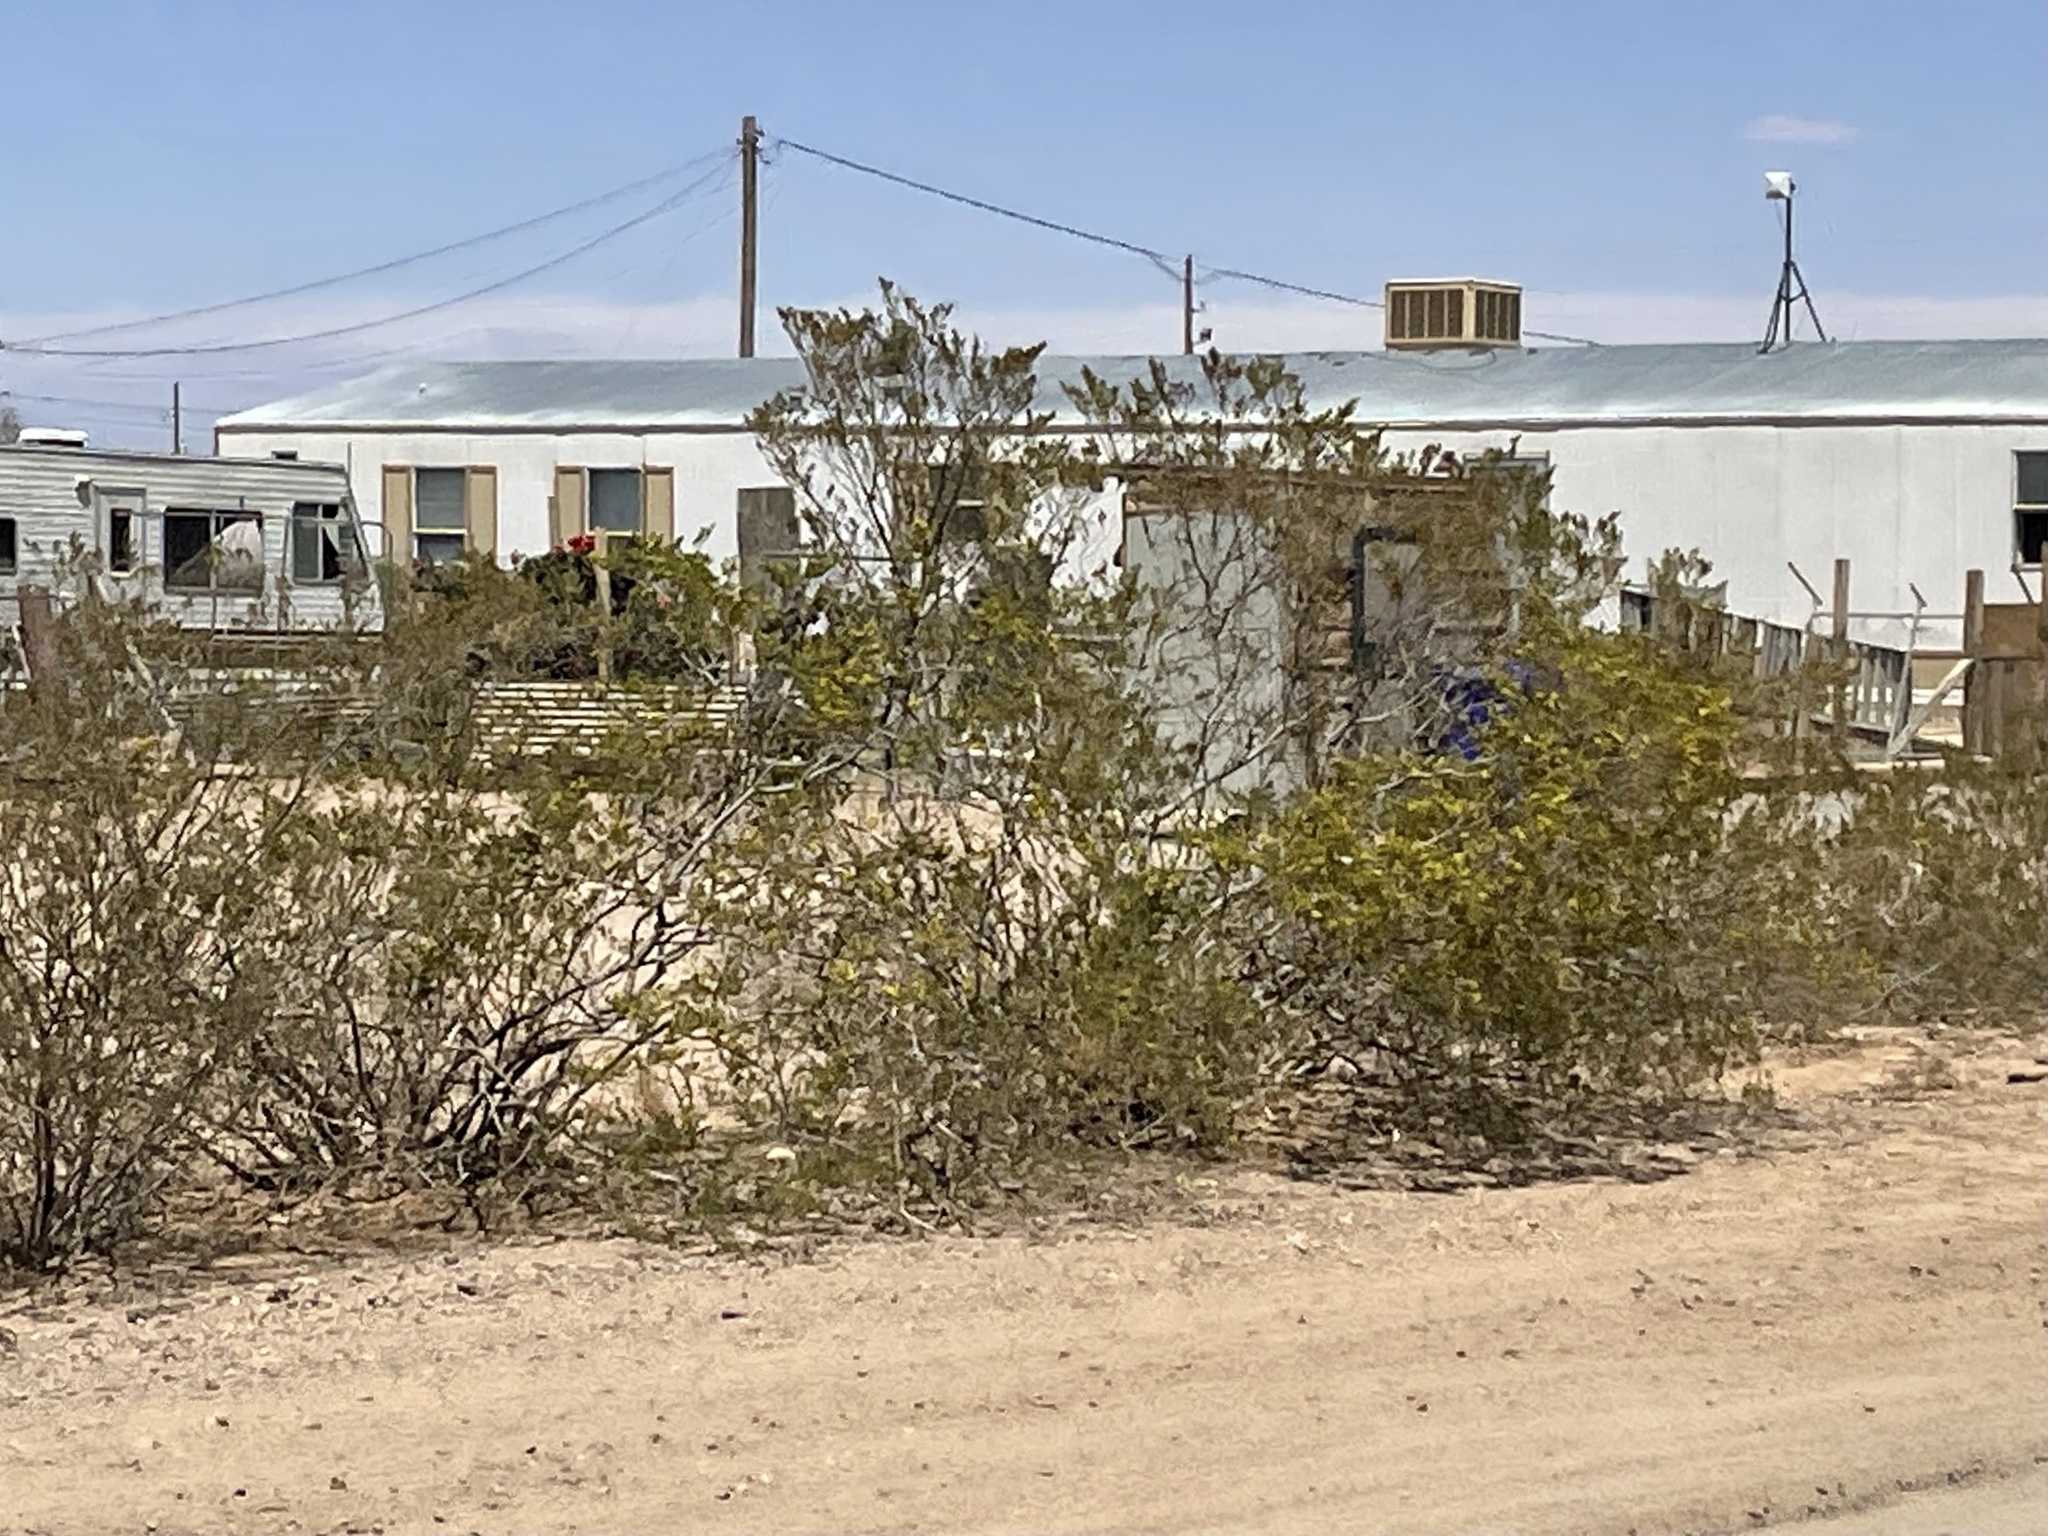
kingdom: Plantae
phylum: Tracheophyta
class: Magnoliopsida
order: Zygophyllales
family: Zygophyllaceae
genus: Larrea
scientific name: Larrea tridentata
